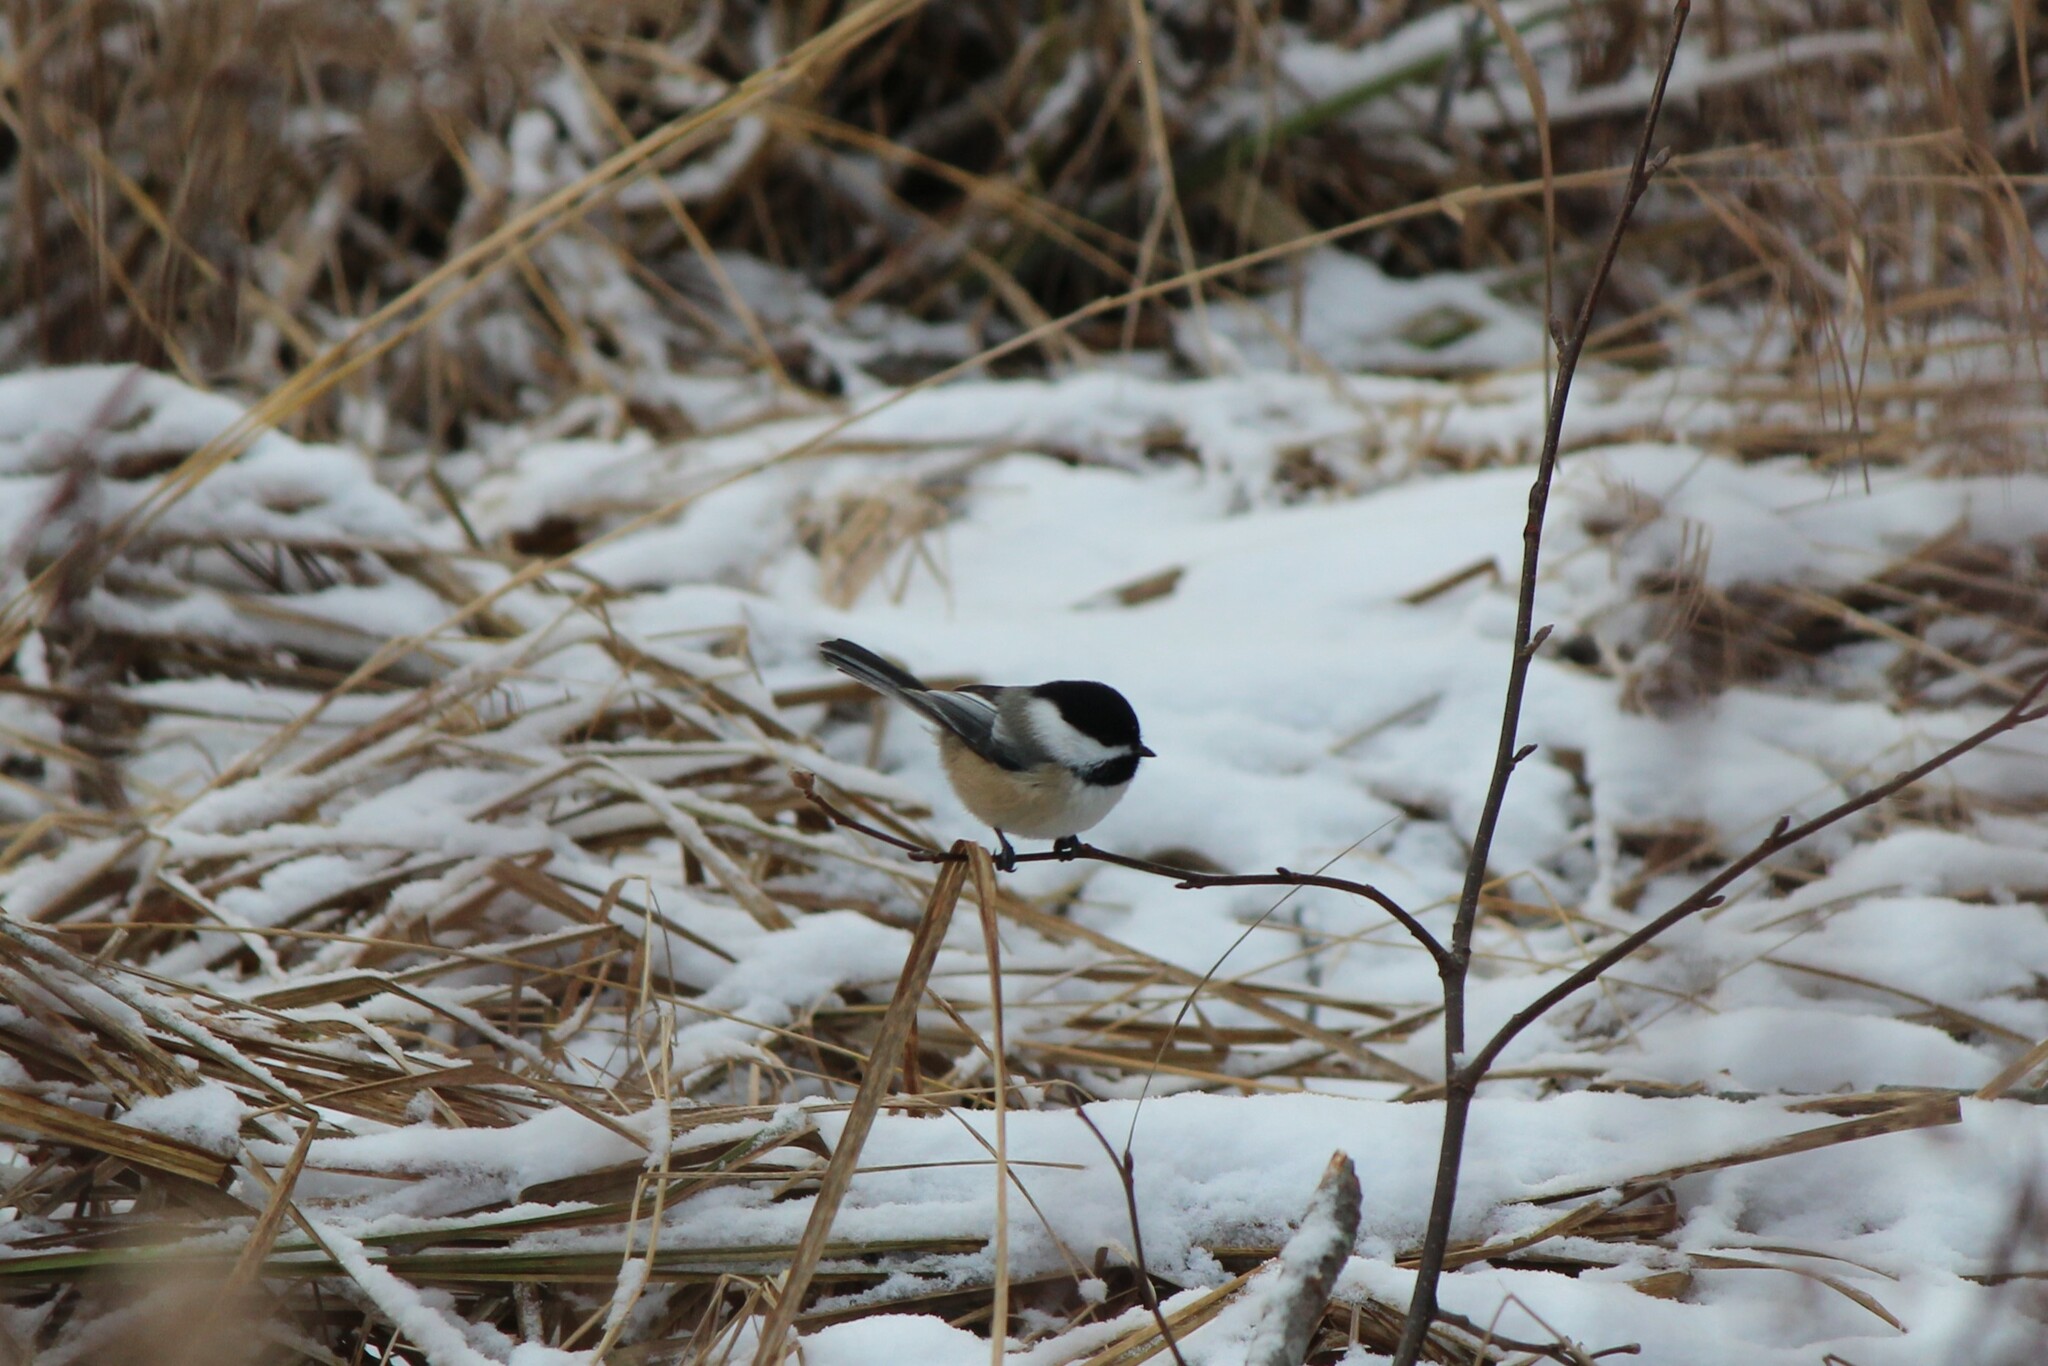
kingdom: Animalia
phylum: Chordata
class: Aves
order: Passeriformes
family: Paridae
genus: Poecile
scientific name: Poecile atricapillus
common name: Black-capped chickadee
